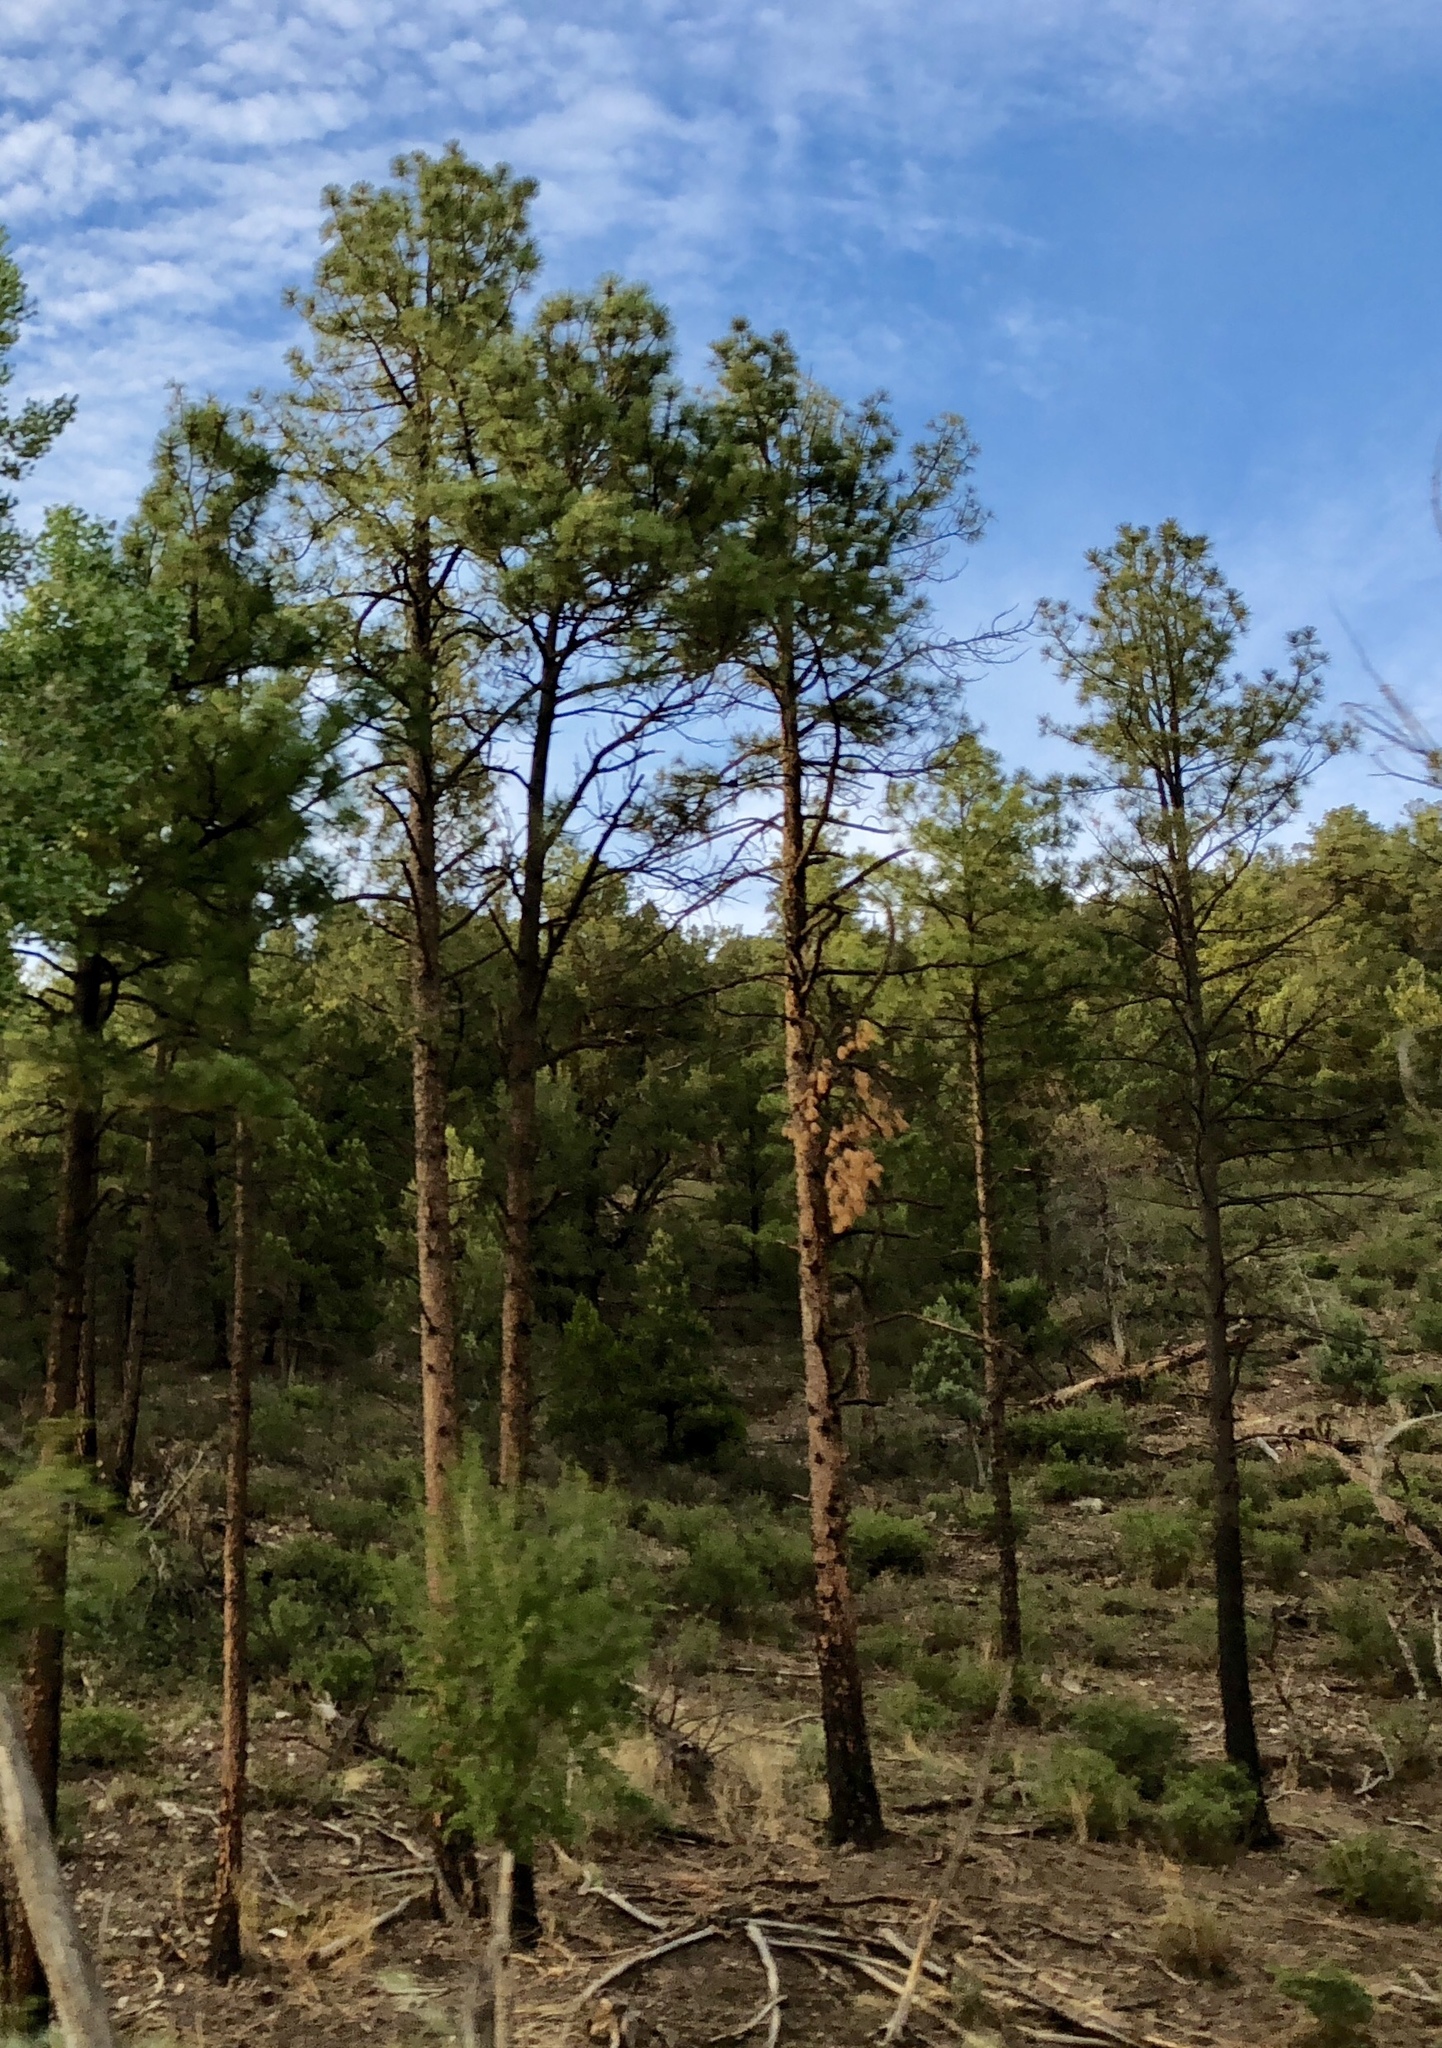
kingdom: Plantae
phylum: Tracheophyta
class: Pinopsida
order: Pinales
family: Pinaceae
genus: Pinus
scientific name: Pinus ponderosa
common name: Western yellow-pine
